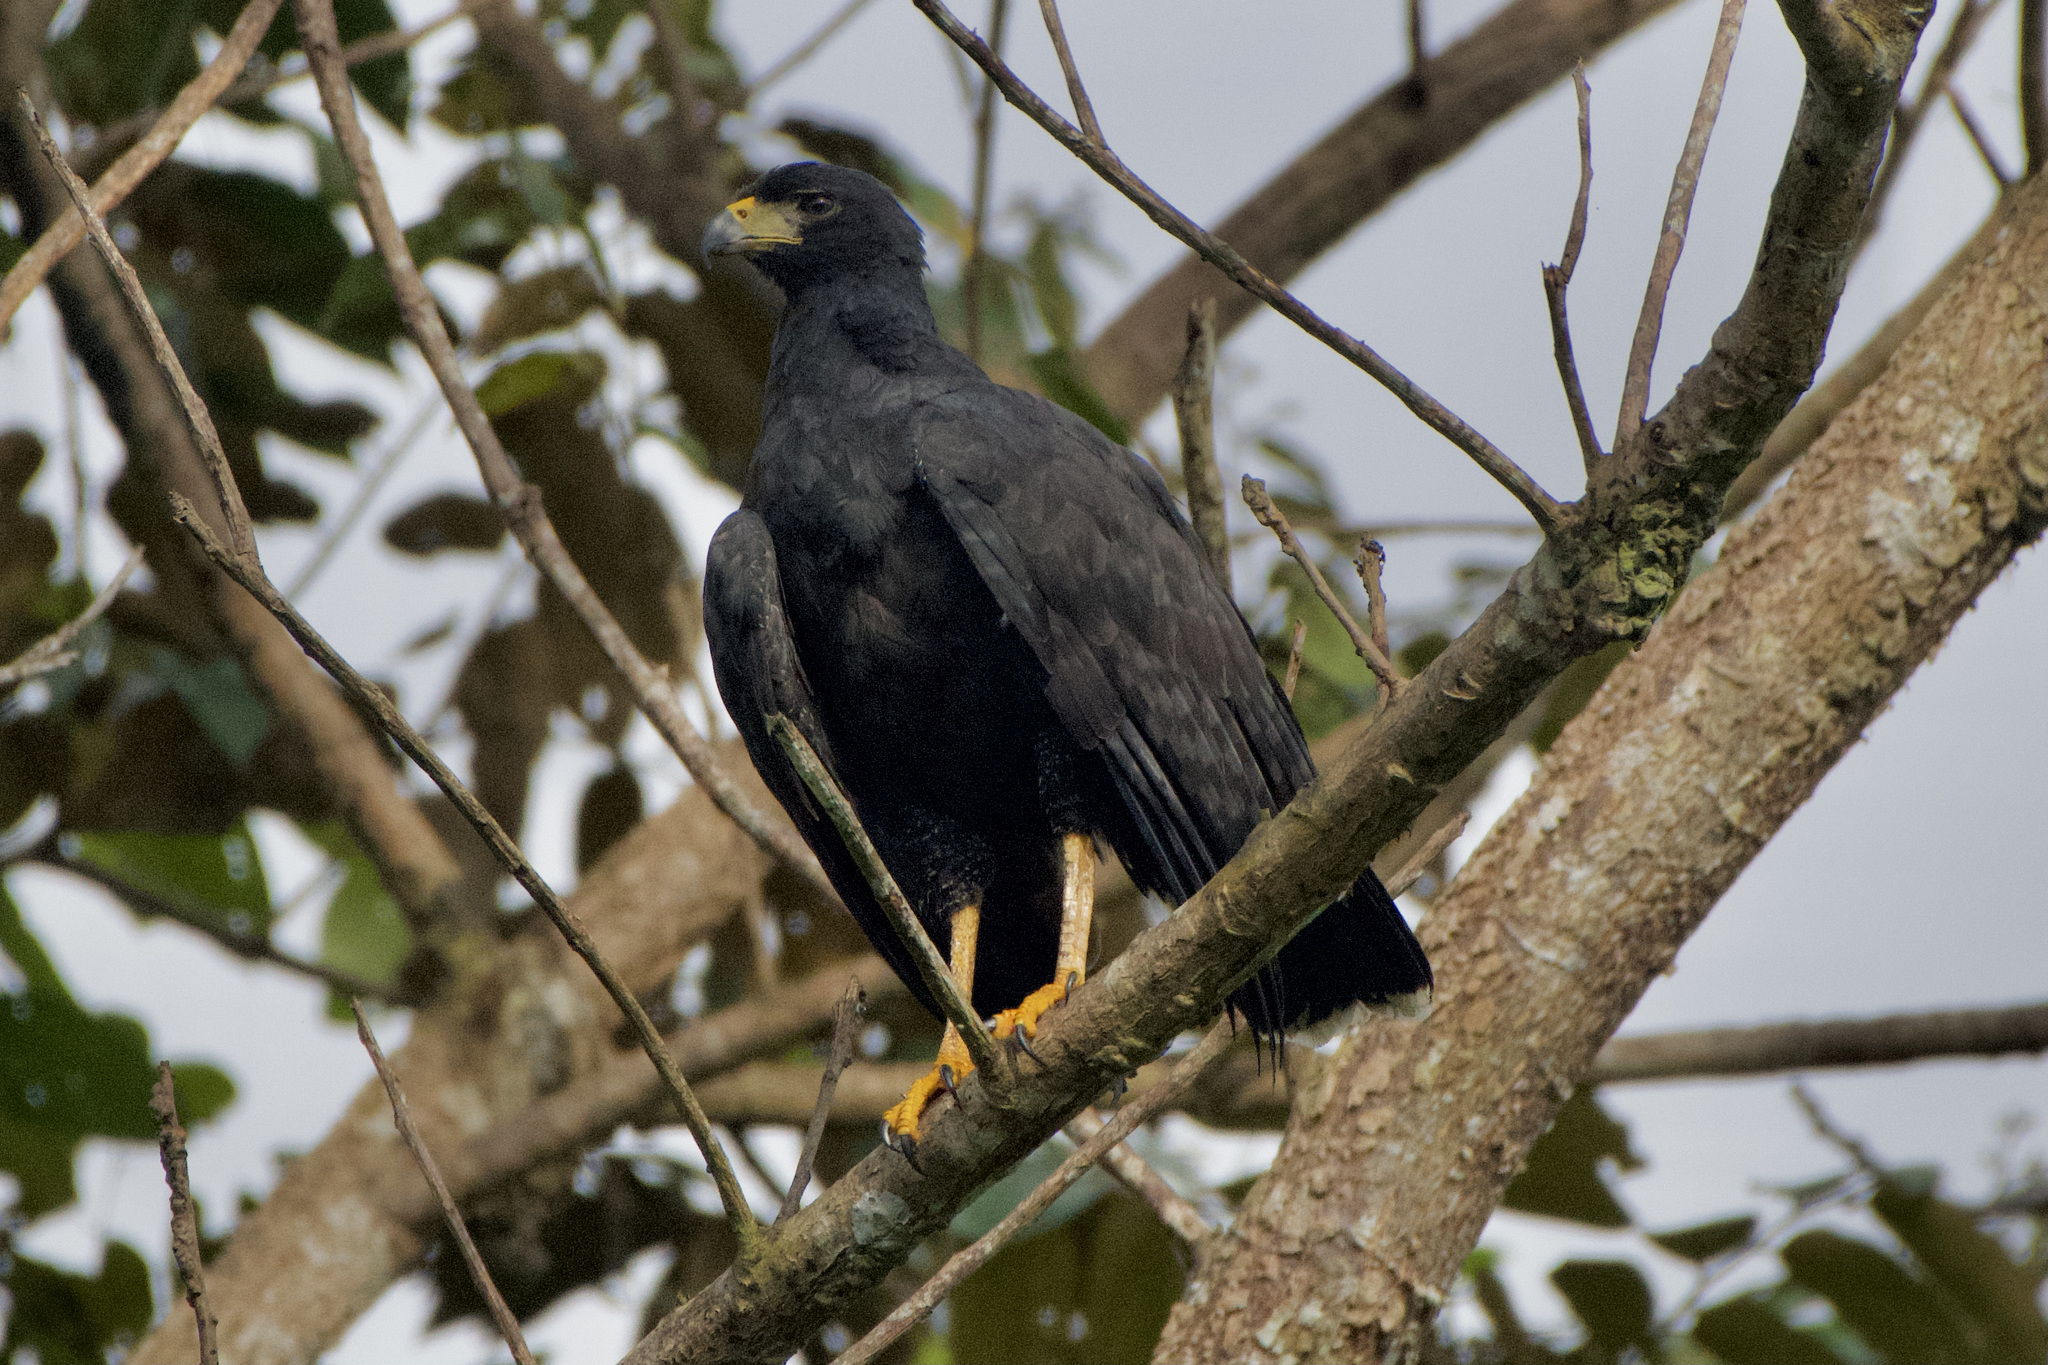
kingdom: Animalia
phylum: Chordata
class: Aves
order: Accipitriformes
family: Accipitridae
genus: Buteogallus
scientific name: Buteogallus anthracinus
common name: Common black hawk
